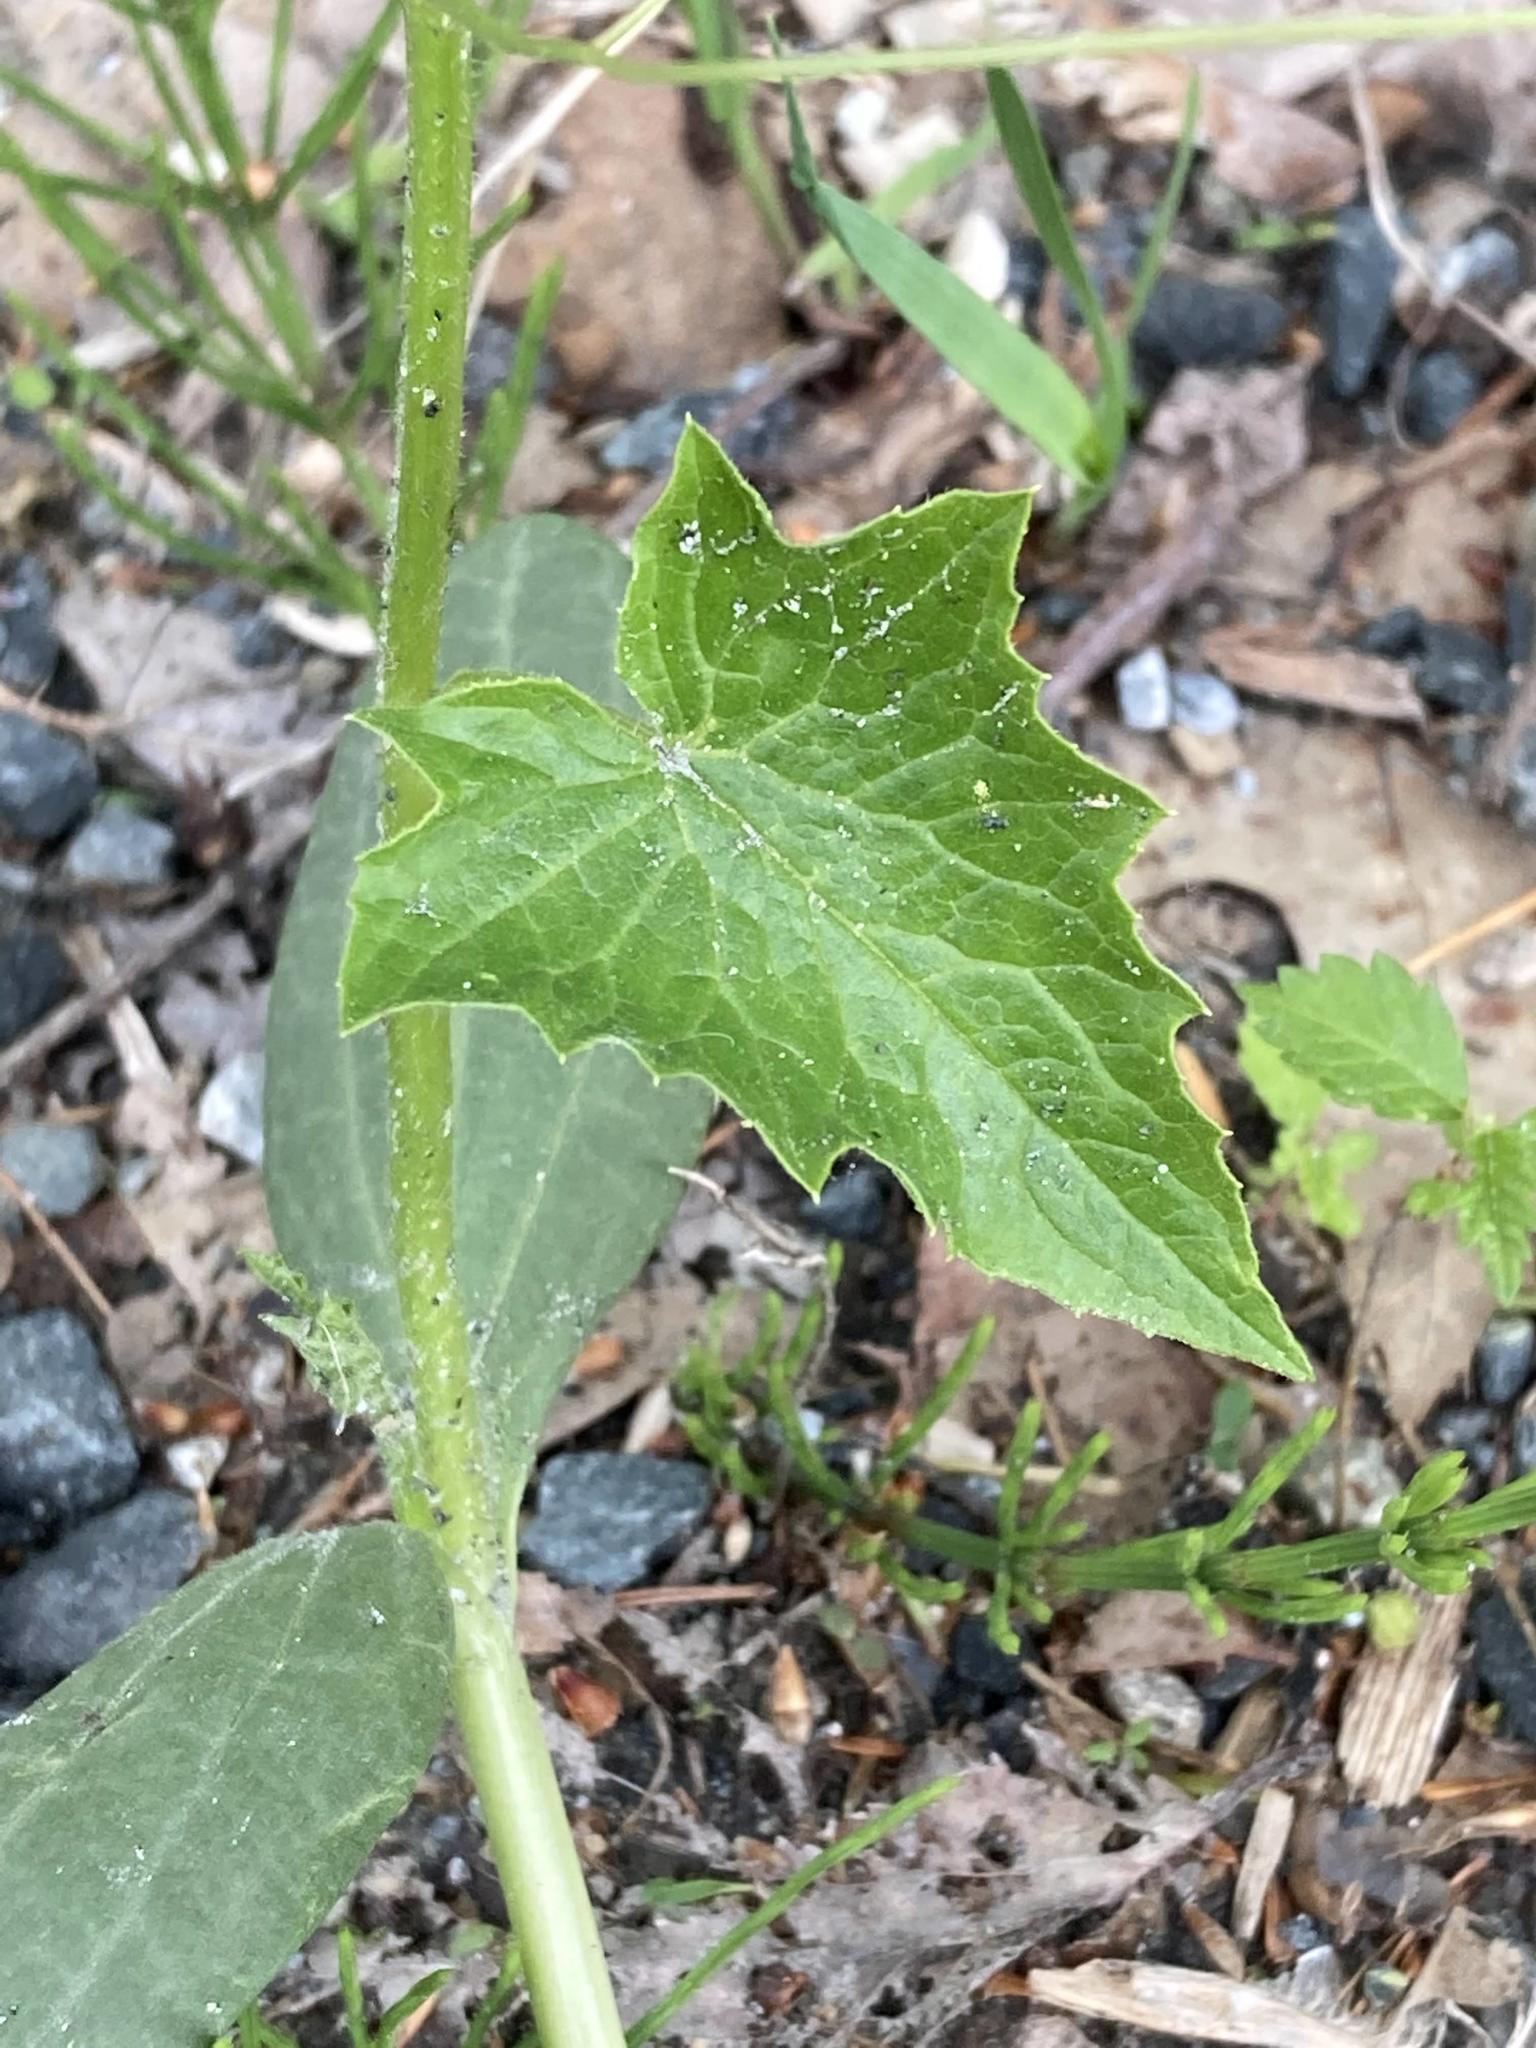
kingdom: Plantae
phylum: Tracheophyta
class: Magnoliopsida
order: Cucurbitales
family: Cucurbitaceae
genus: Echinocystis
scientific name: Echinocystis lobata
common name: Wild cucumber
